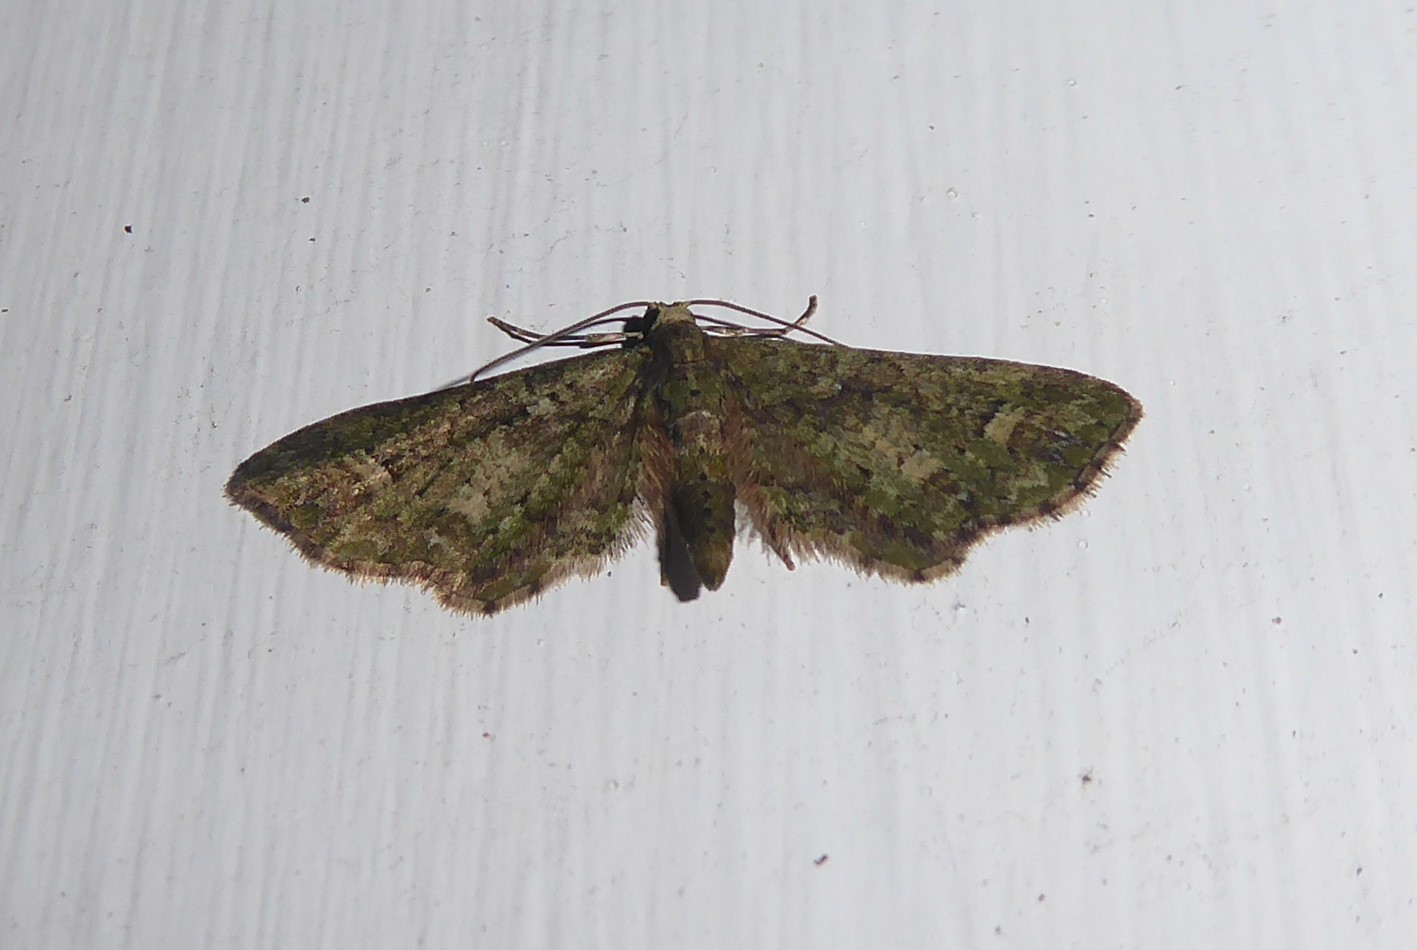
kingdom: Animalia
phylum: Arthropoda
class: Insecta
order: Lepidoptera
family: Geometridae
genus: Idaea
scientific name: Idaea mutanda
